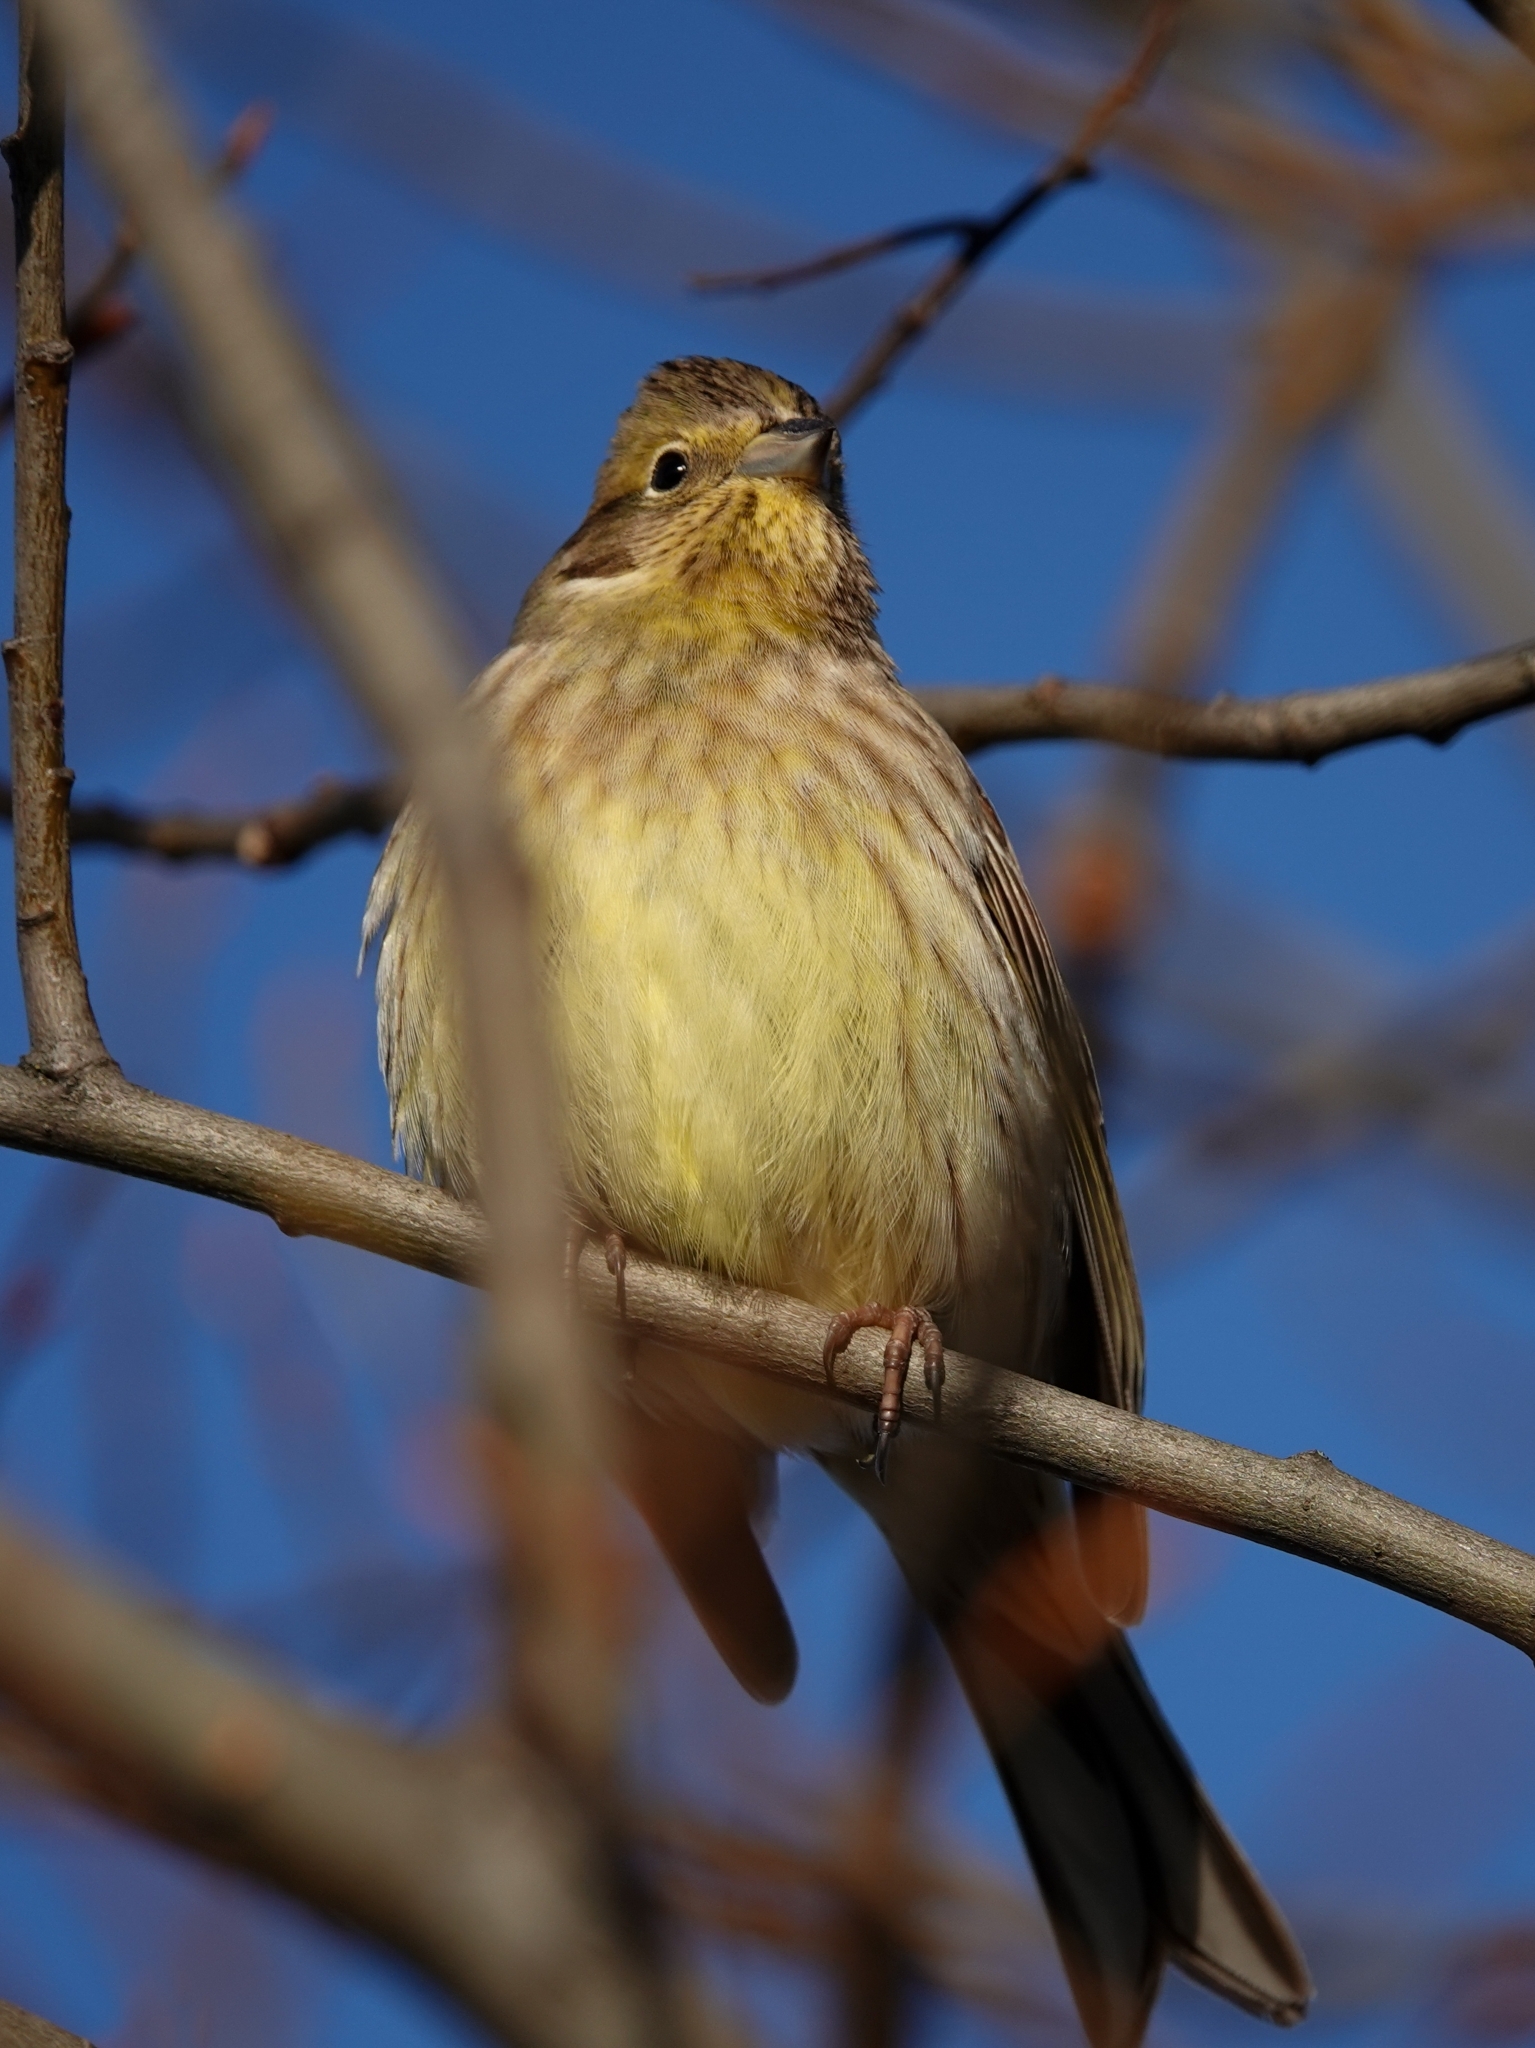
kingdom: Animalia
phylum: Chordata
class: Aves
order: Passeriformes
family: Emberizidae
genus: Emberiza
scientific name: Emberiza citrinella
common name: Yellowhammer
